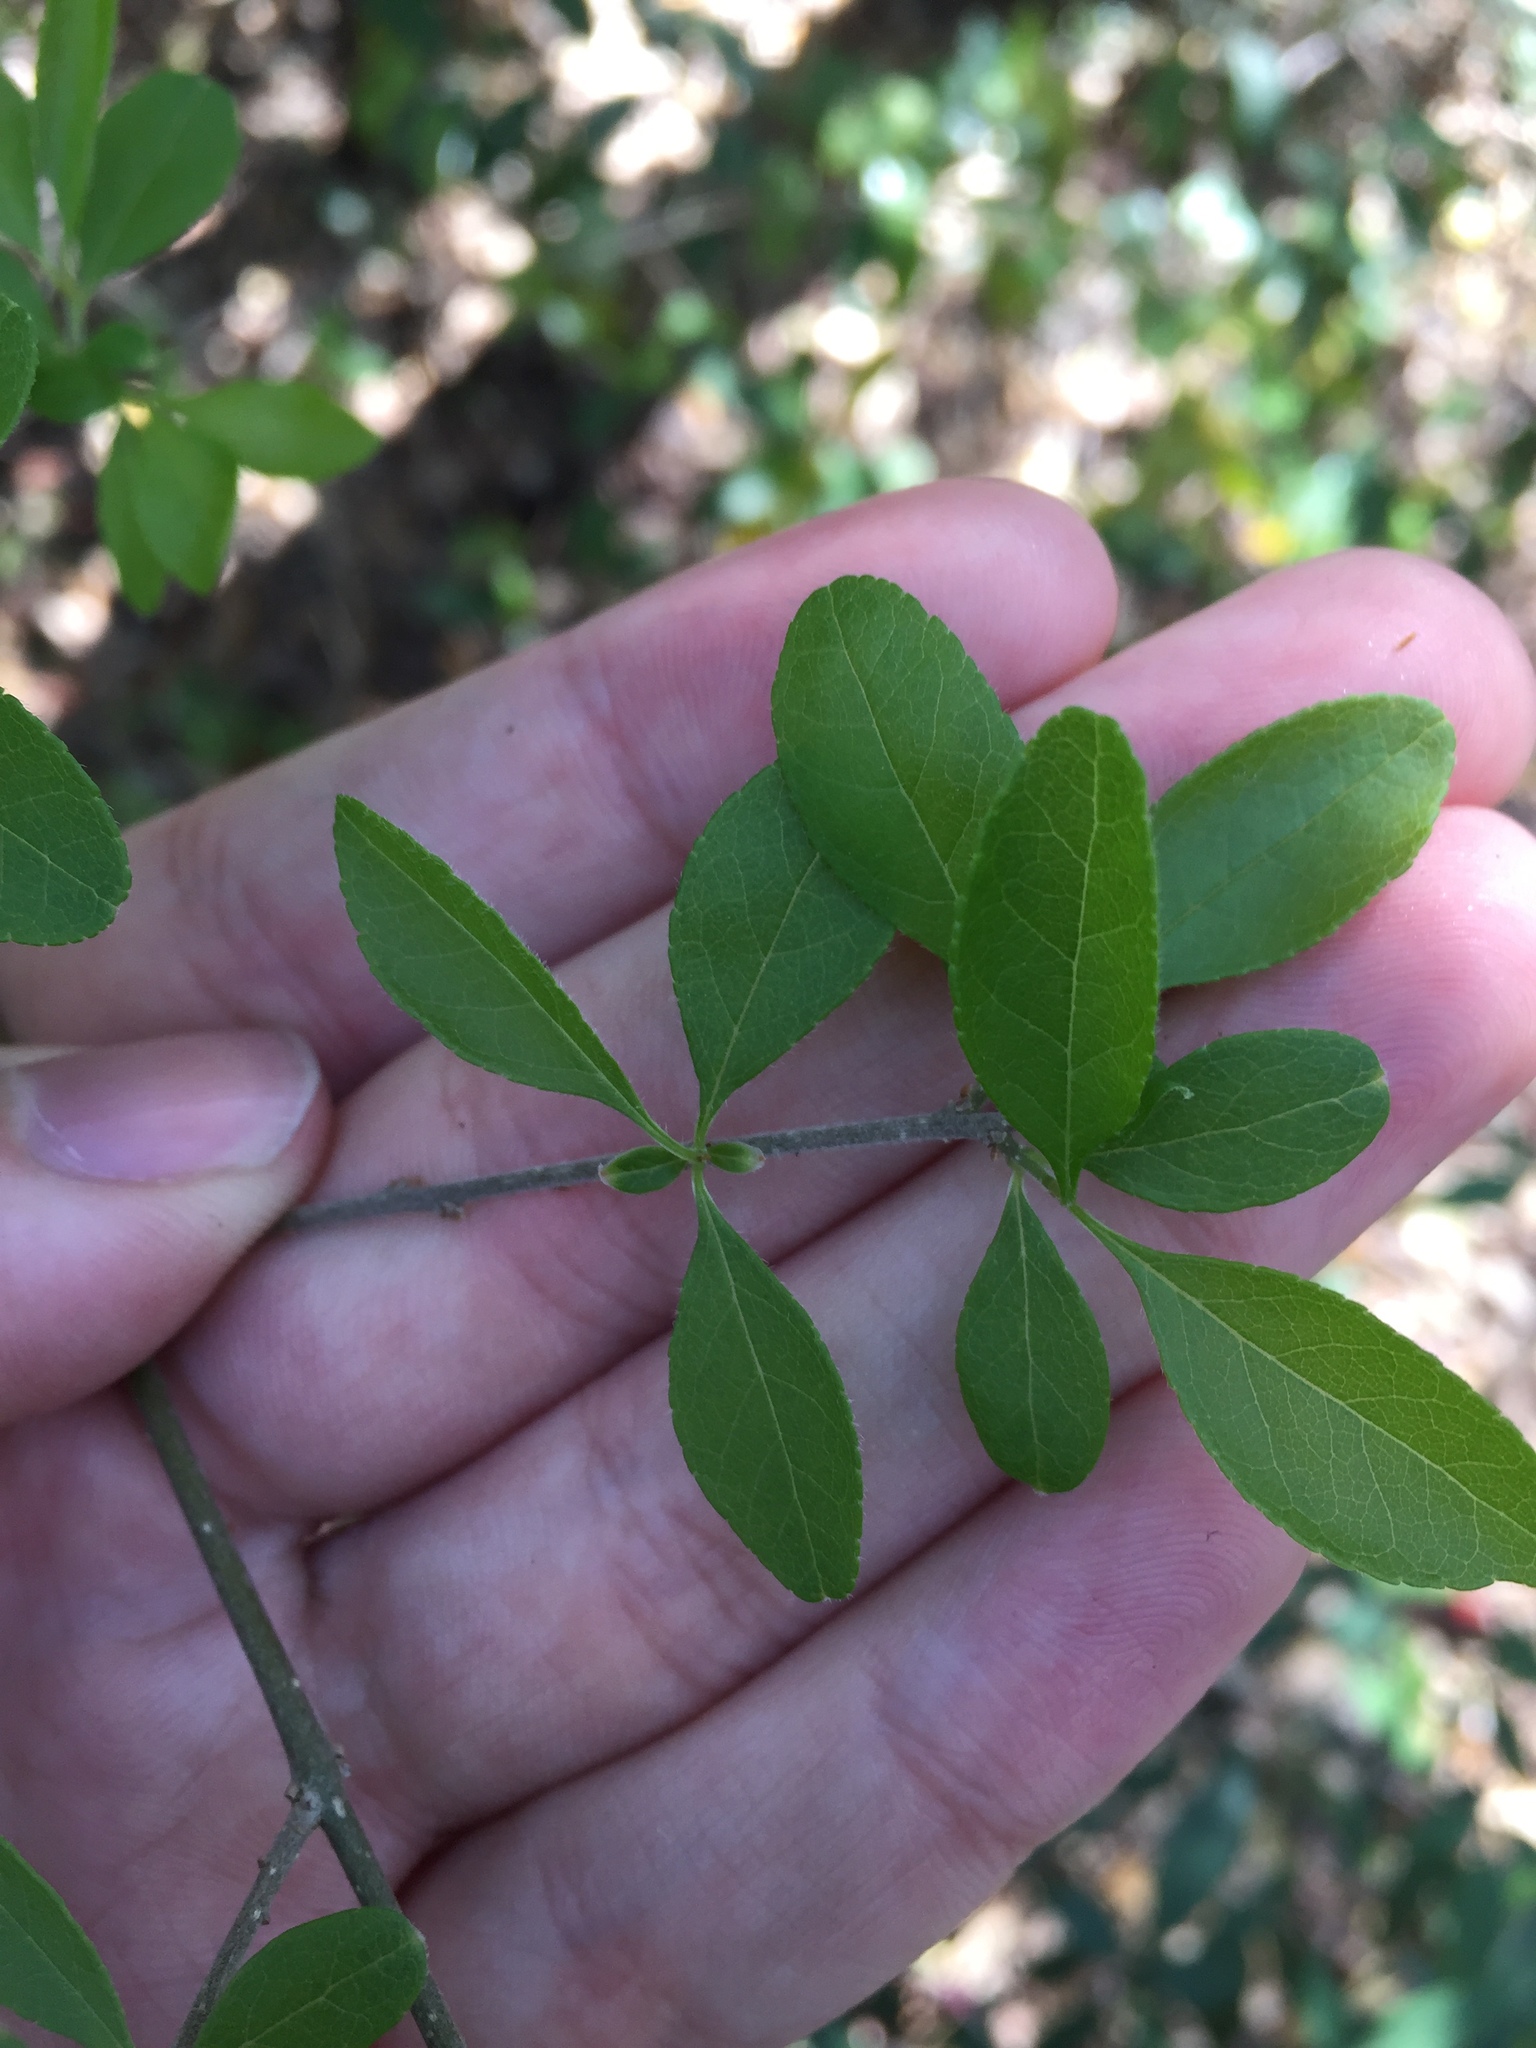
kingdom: Plantae
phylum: Tracheophyta
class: Magnoliopsida
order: Lamiales
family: Oleaceae
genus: Forestiera
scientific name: Forestiera pubescens
